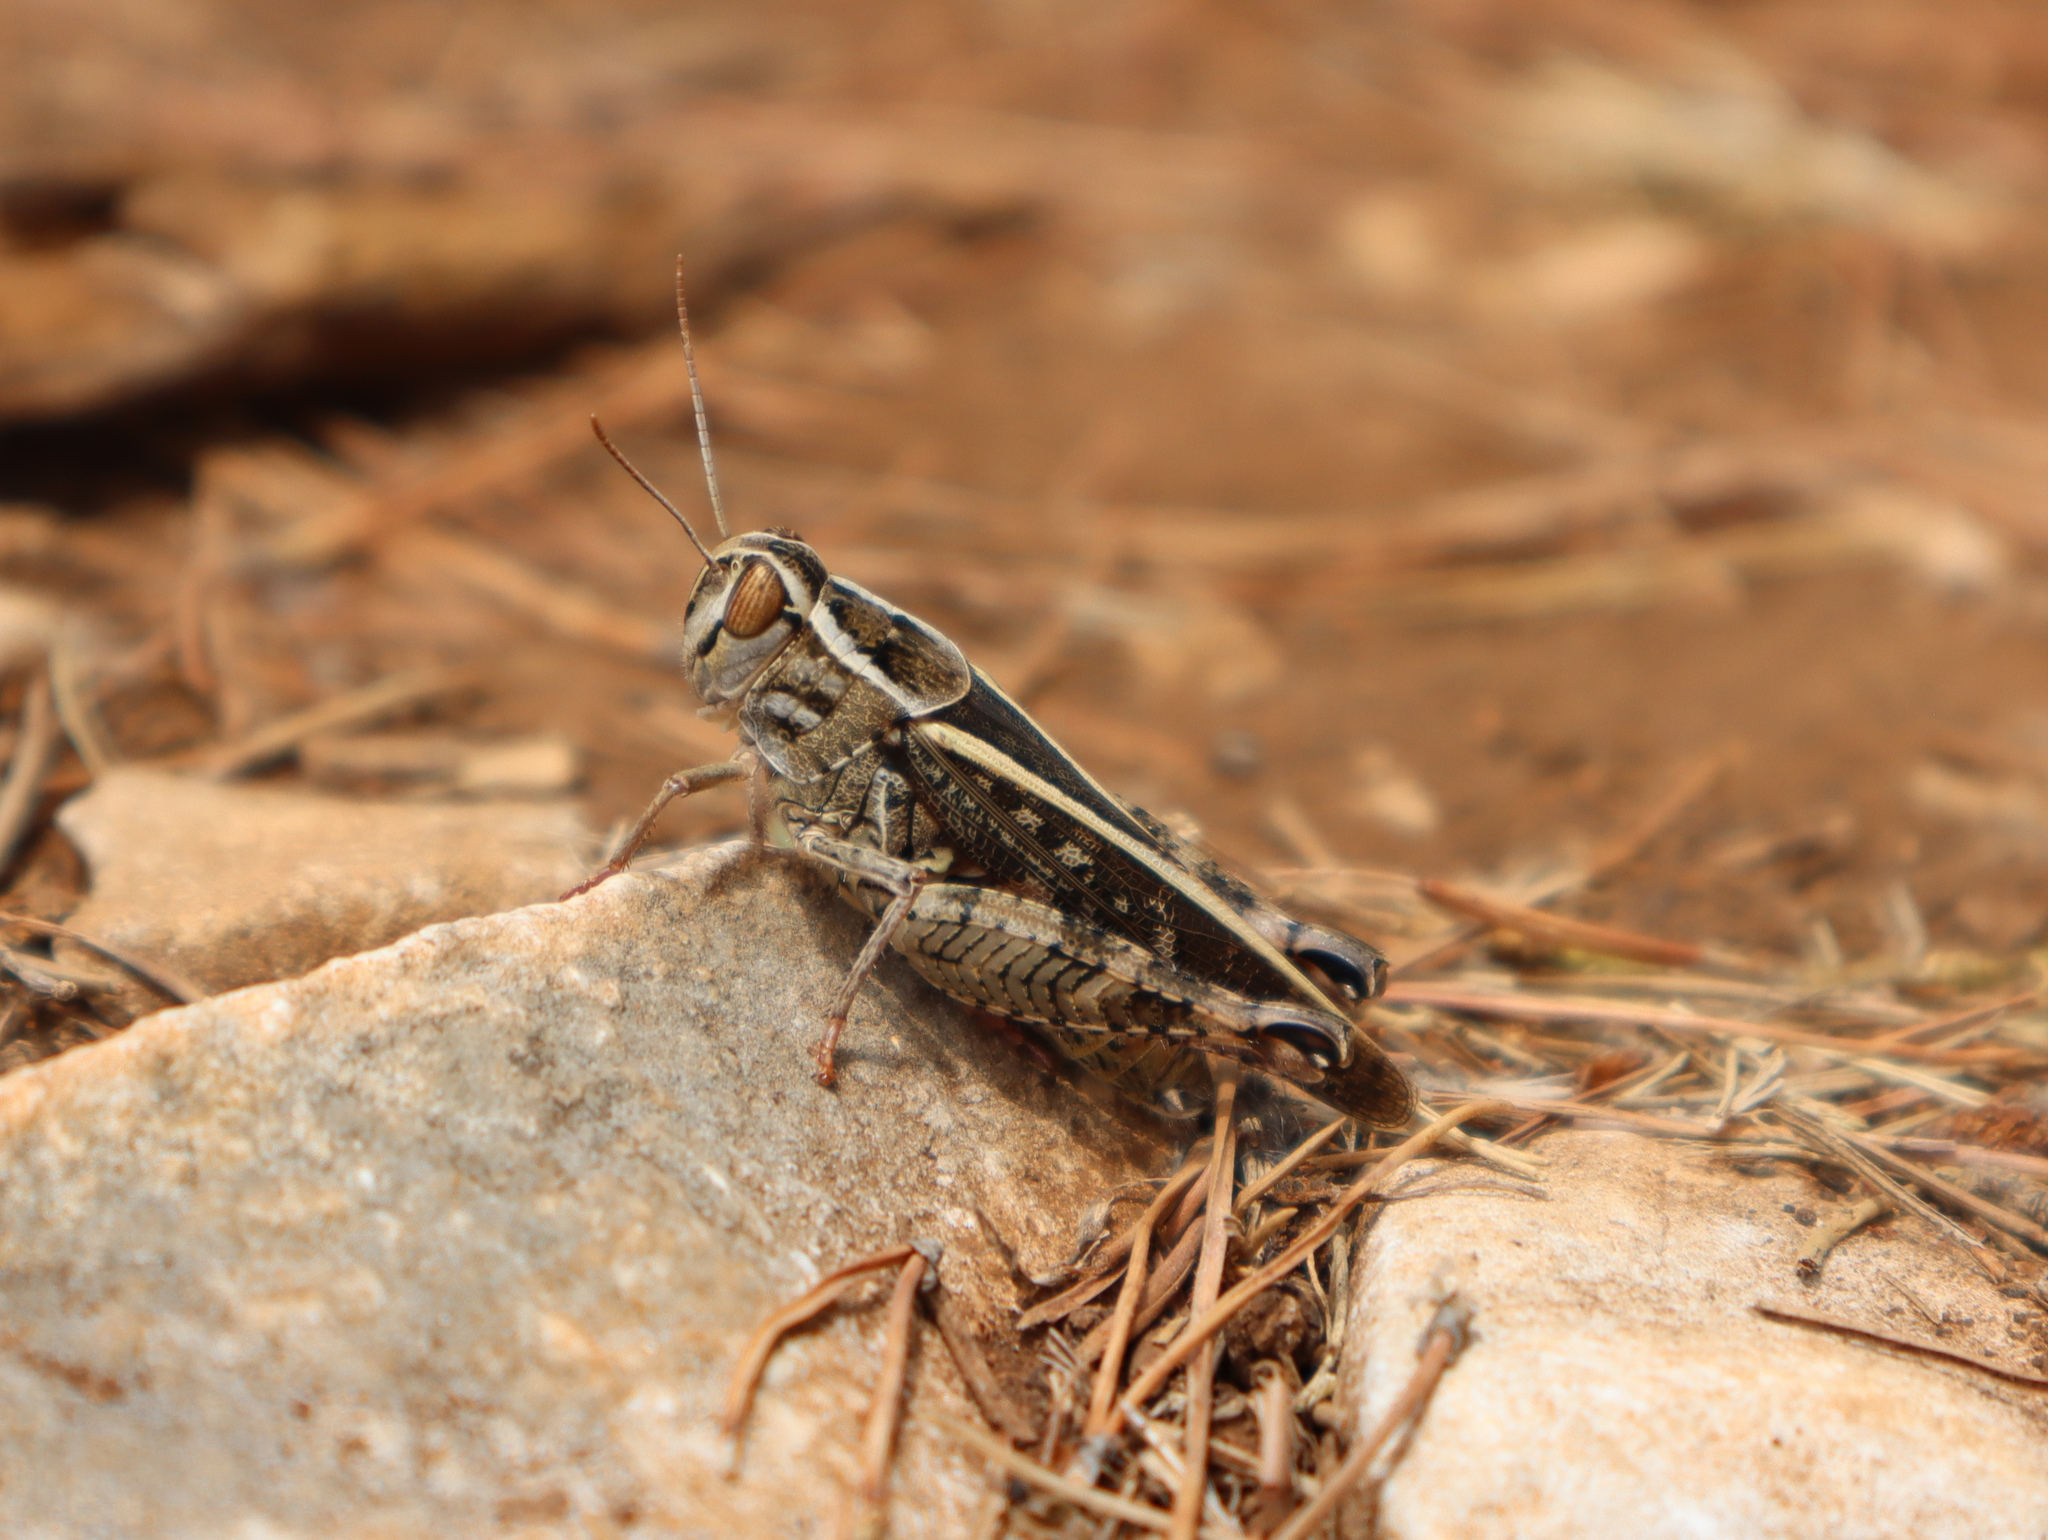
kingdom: Animalia
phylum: Arthropoda
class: Insecta
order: Orthoptera
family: Acrididae
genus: Calliptamus
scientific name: Calliptamus italicus
